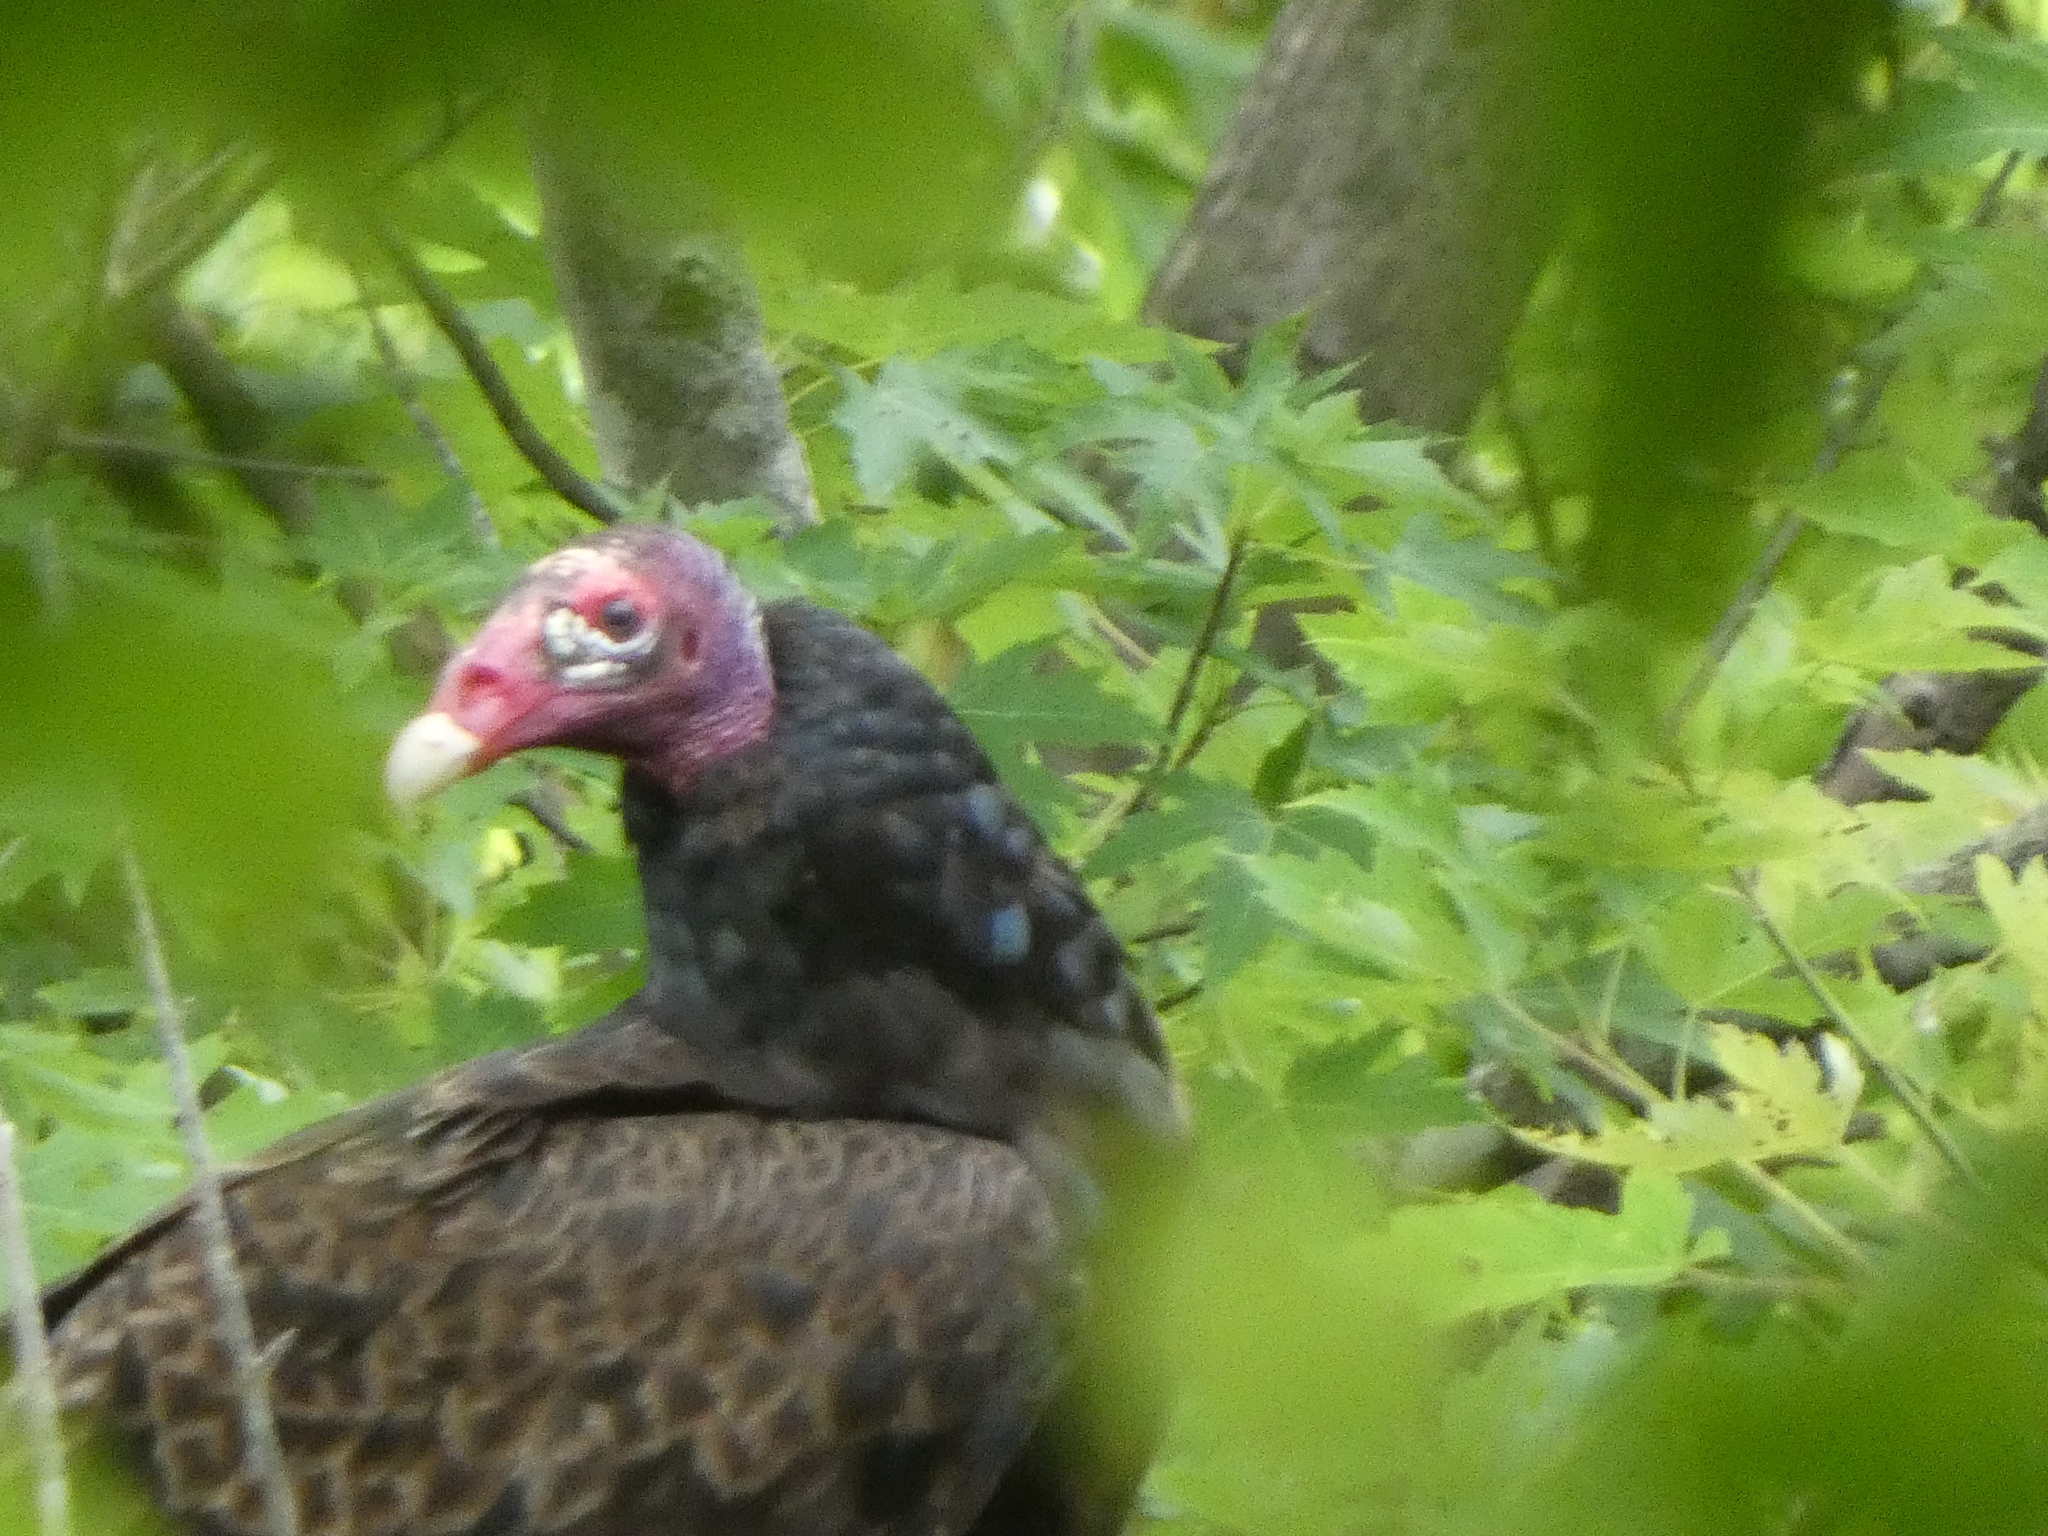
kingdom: Animalia
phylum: Chordata
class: Aves
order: Accipitriformes
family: Cathartidae
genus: Cathartes
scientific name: Cathartes aura
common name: Turkey vulture
